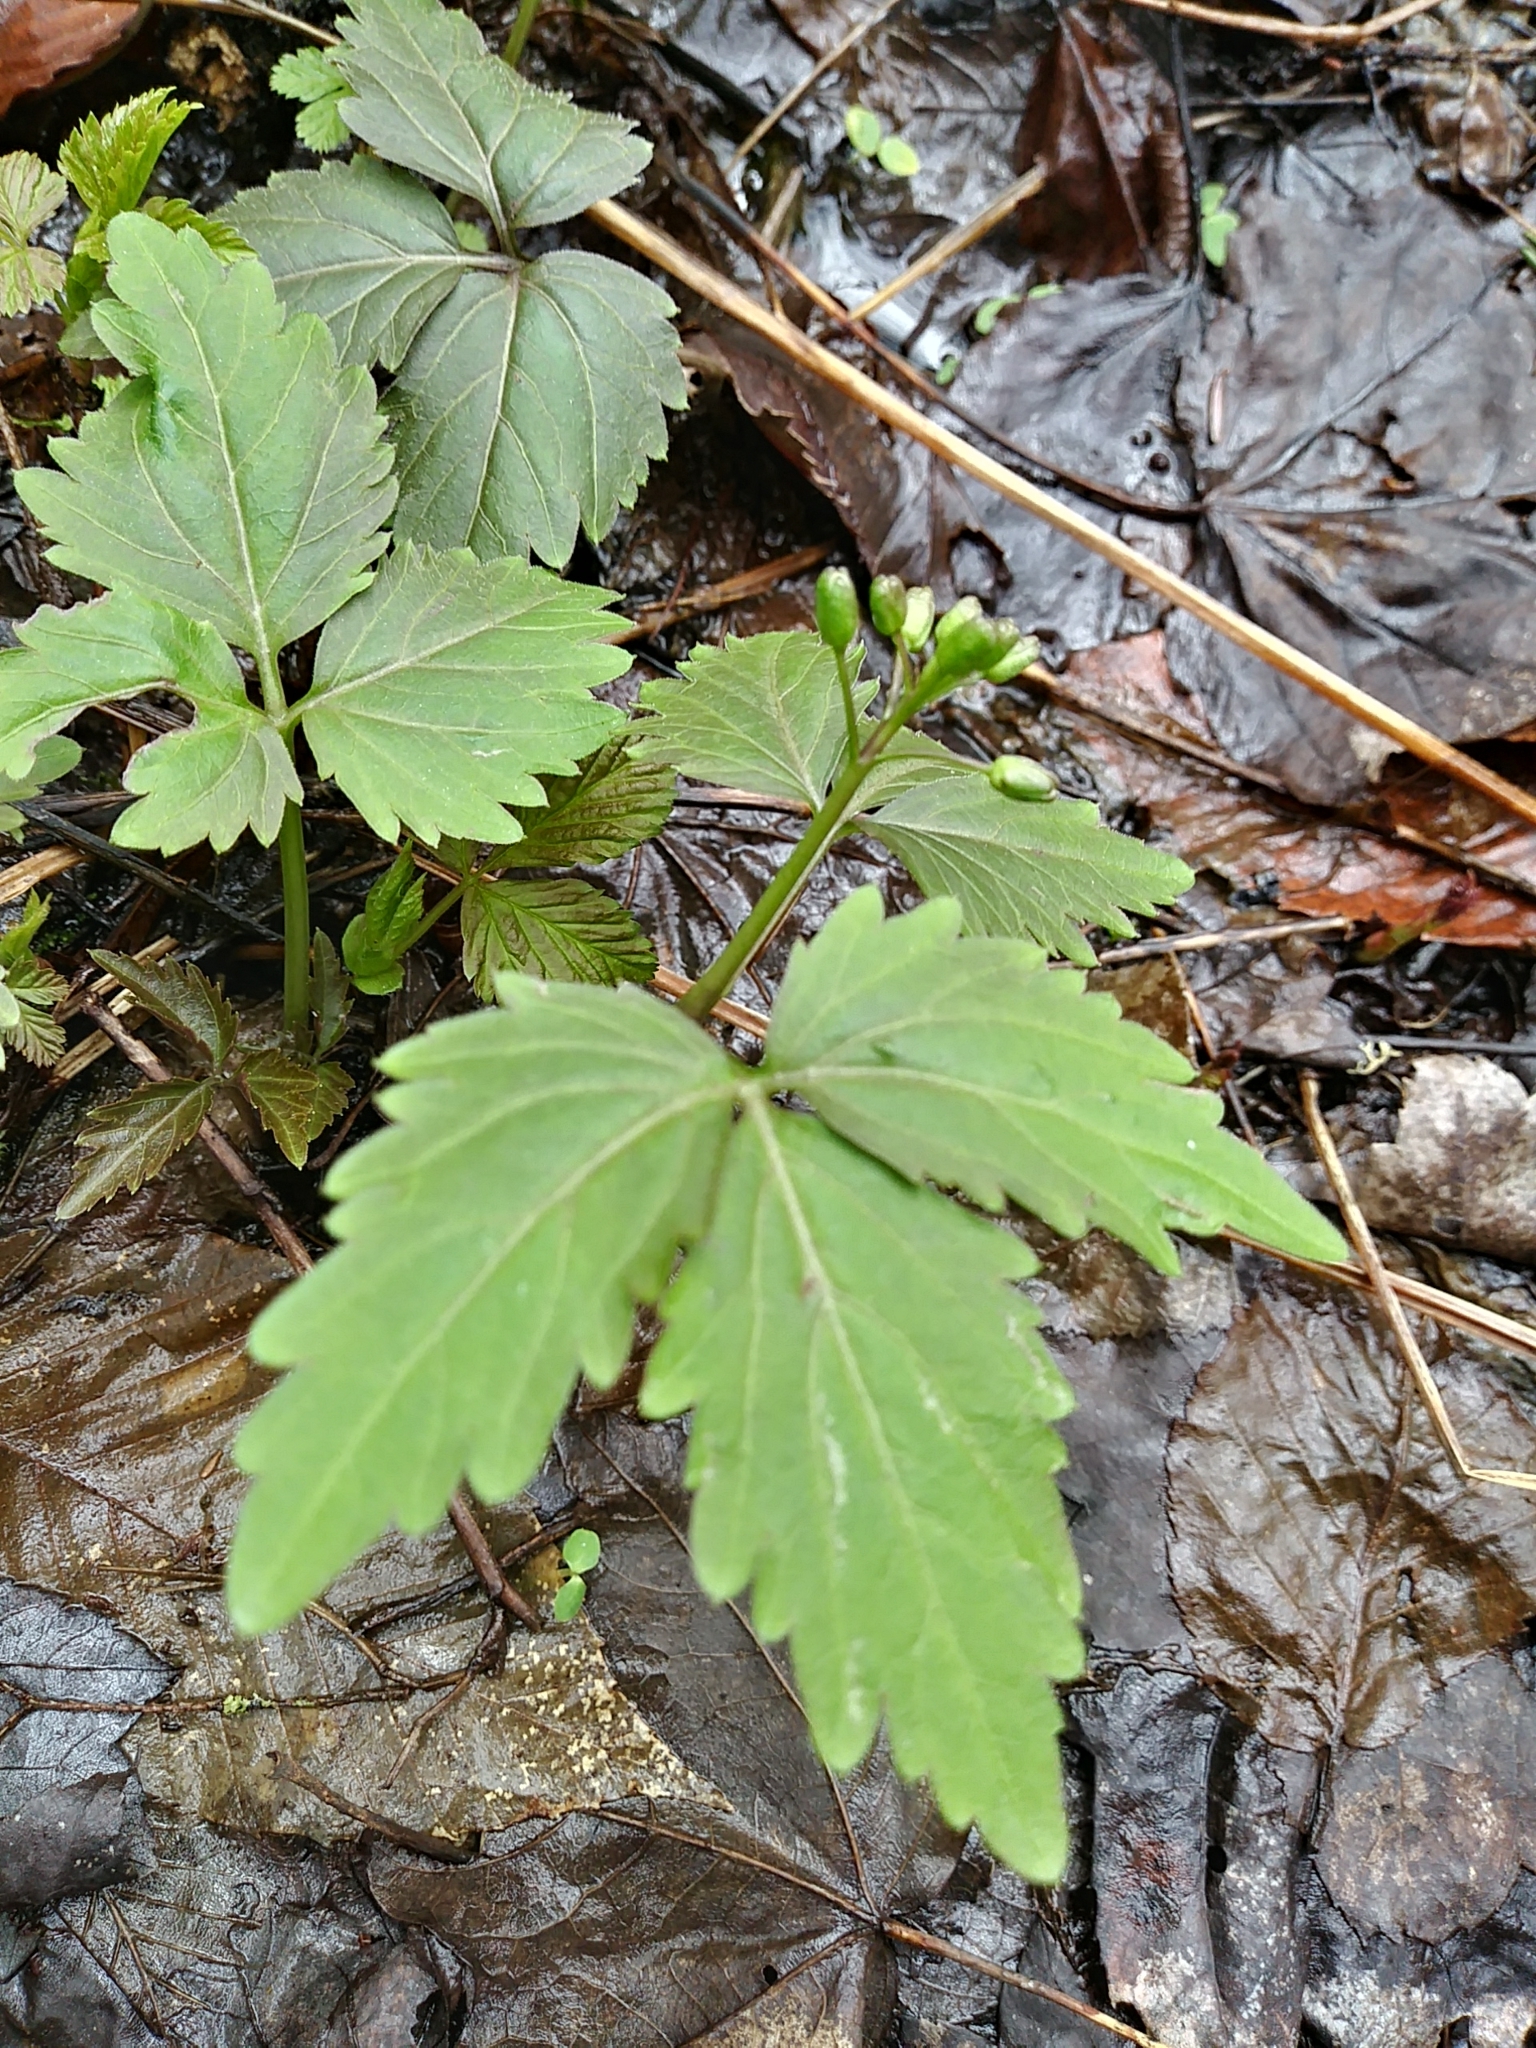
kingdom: Plantae
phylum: Tracheophyta
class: Magnoliopsida
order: Brassicales
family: Brassicaceae
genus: Cardamine
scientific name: Cardamine diphylla
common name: Broad-leaved toothwort
